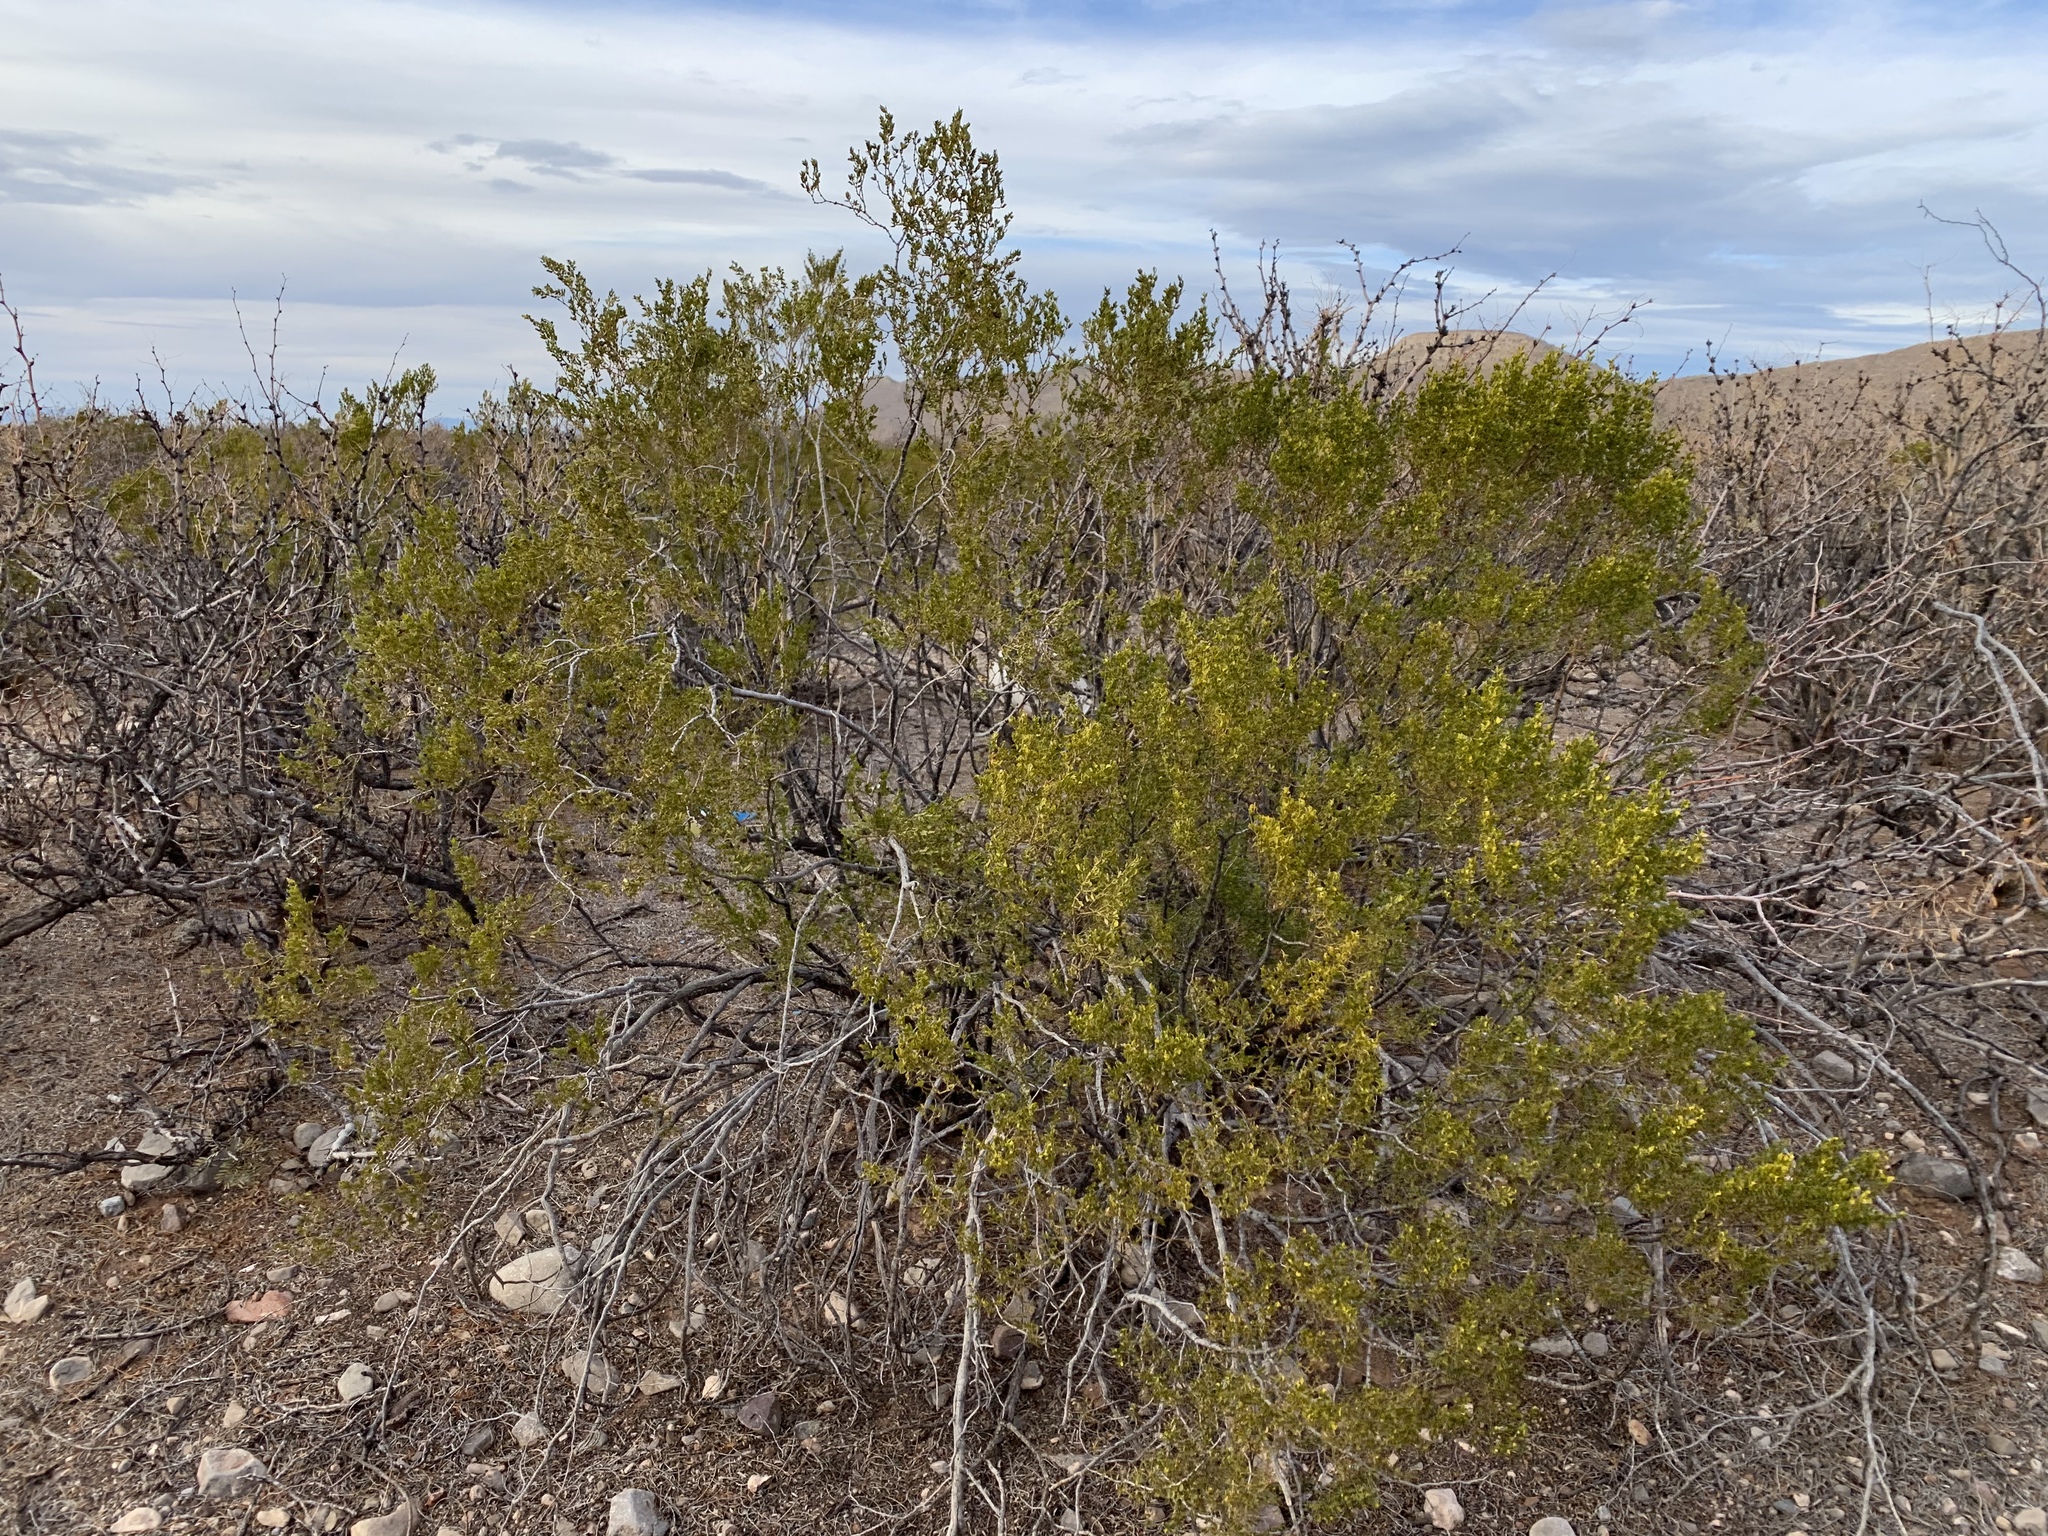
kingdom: Plantae
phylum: Tracheophyta
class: Magnoliopsida
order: Zygophyllales
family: Zygophyllaceae
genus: Larrea
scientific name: Larrea tridentata
